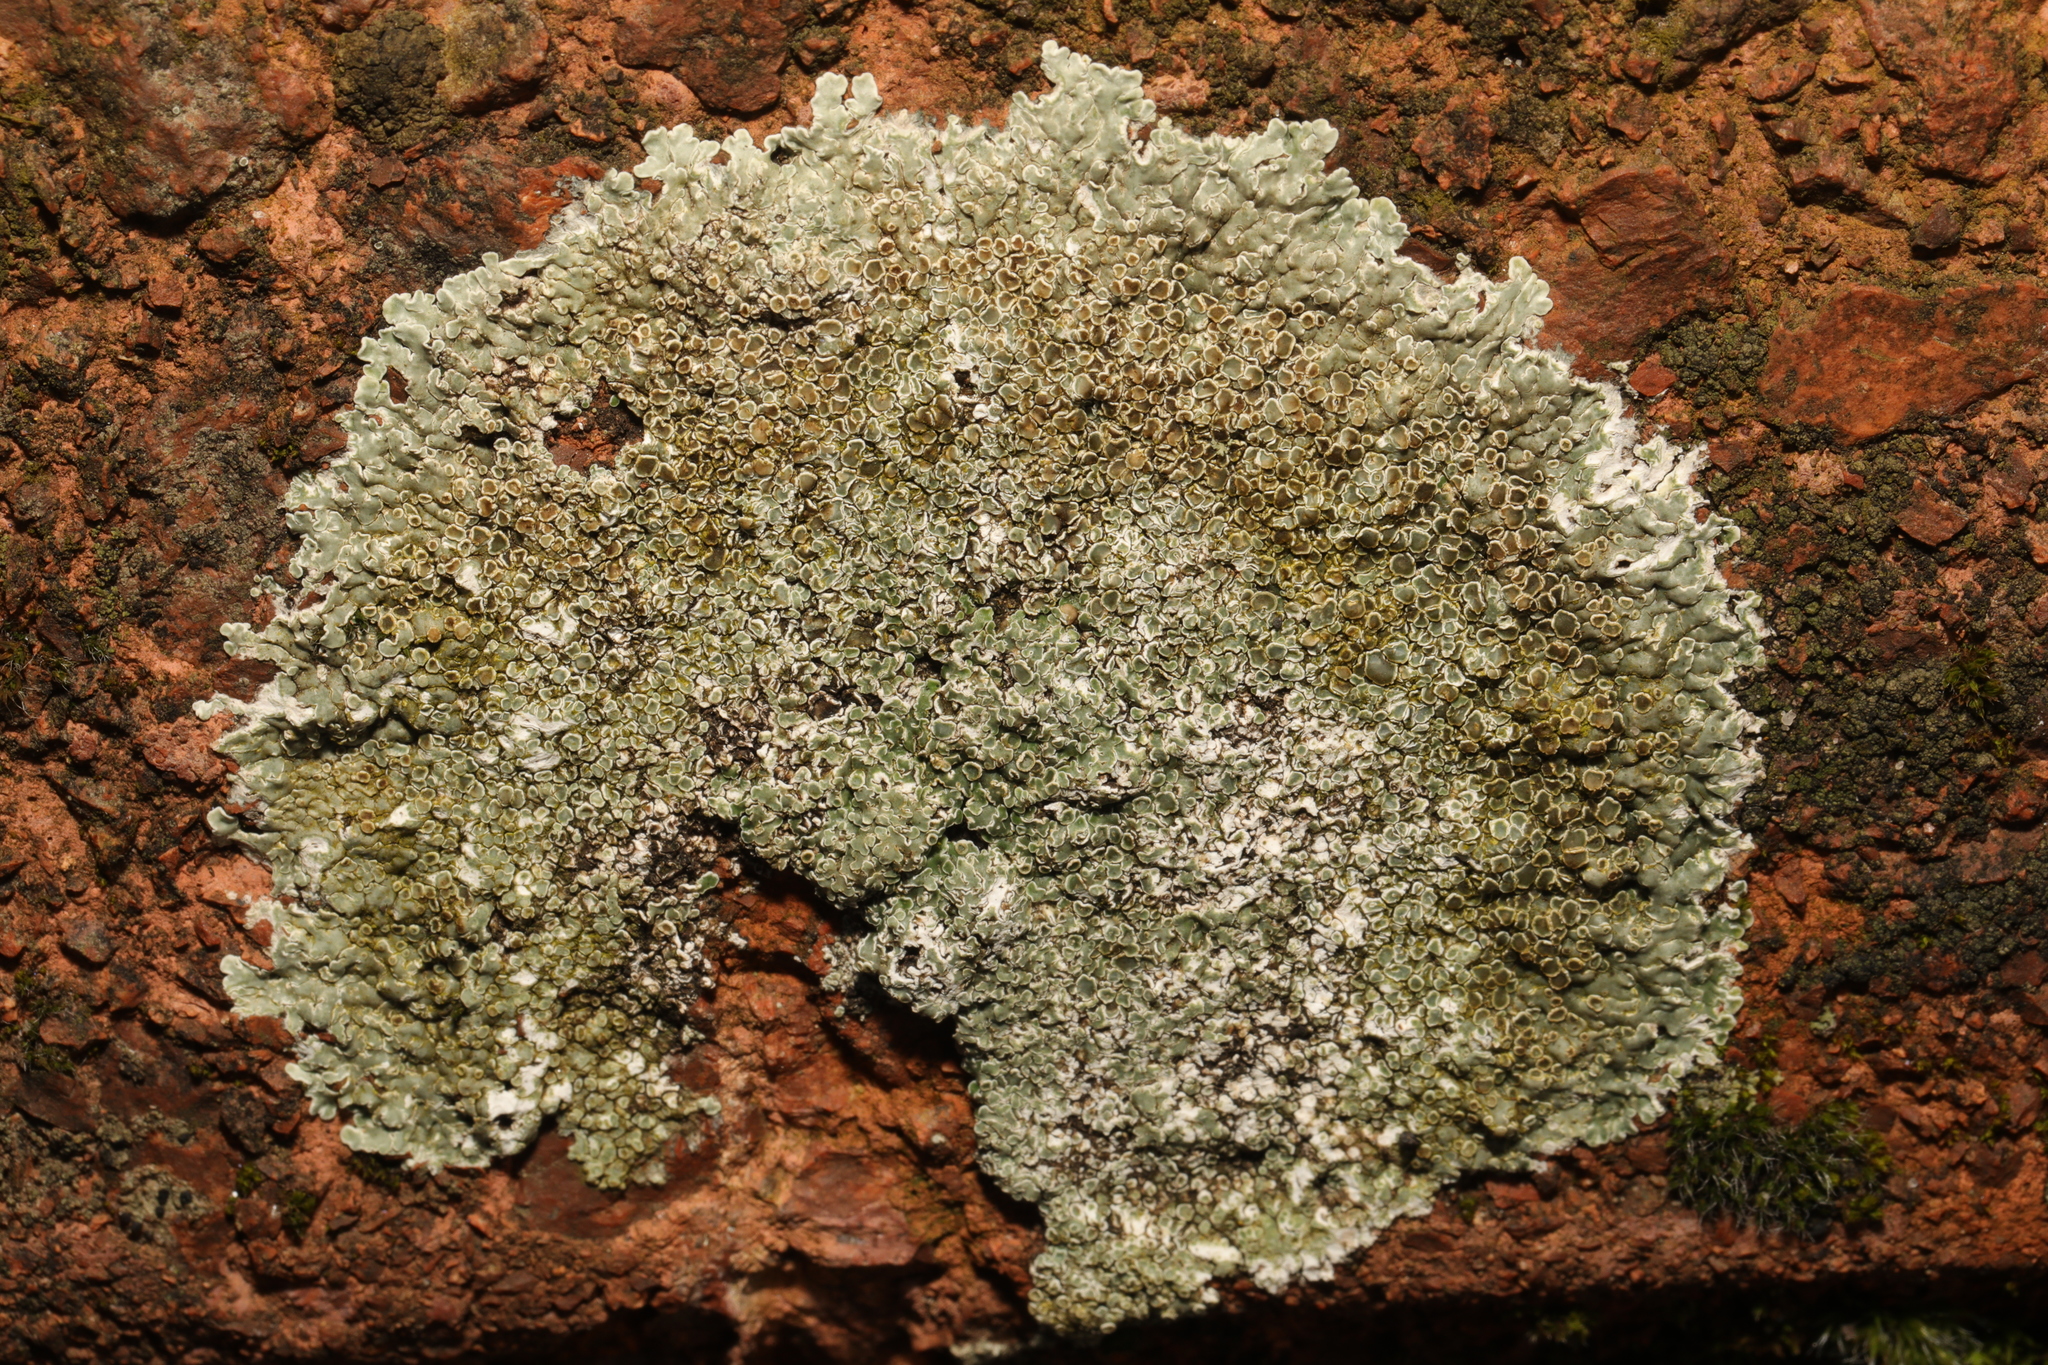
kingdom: Fungi
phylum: Ascomycota
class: Lecanoromycetes
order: Lecanorales
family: Lecanoraceae
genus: Protoparmeliopsis
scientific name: Protoparmeliopsis muralis
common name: Stonewall rim lichen
